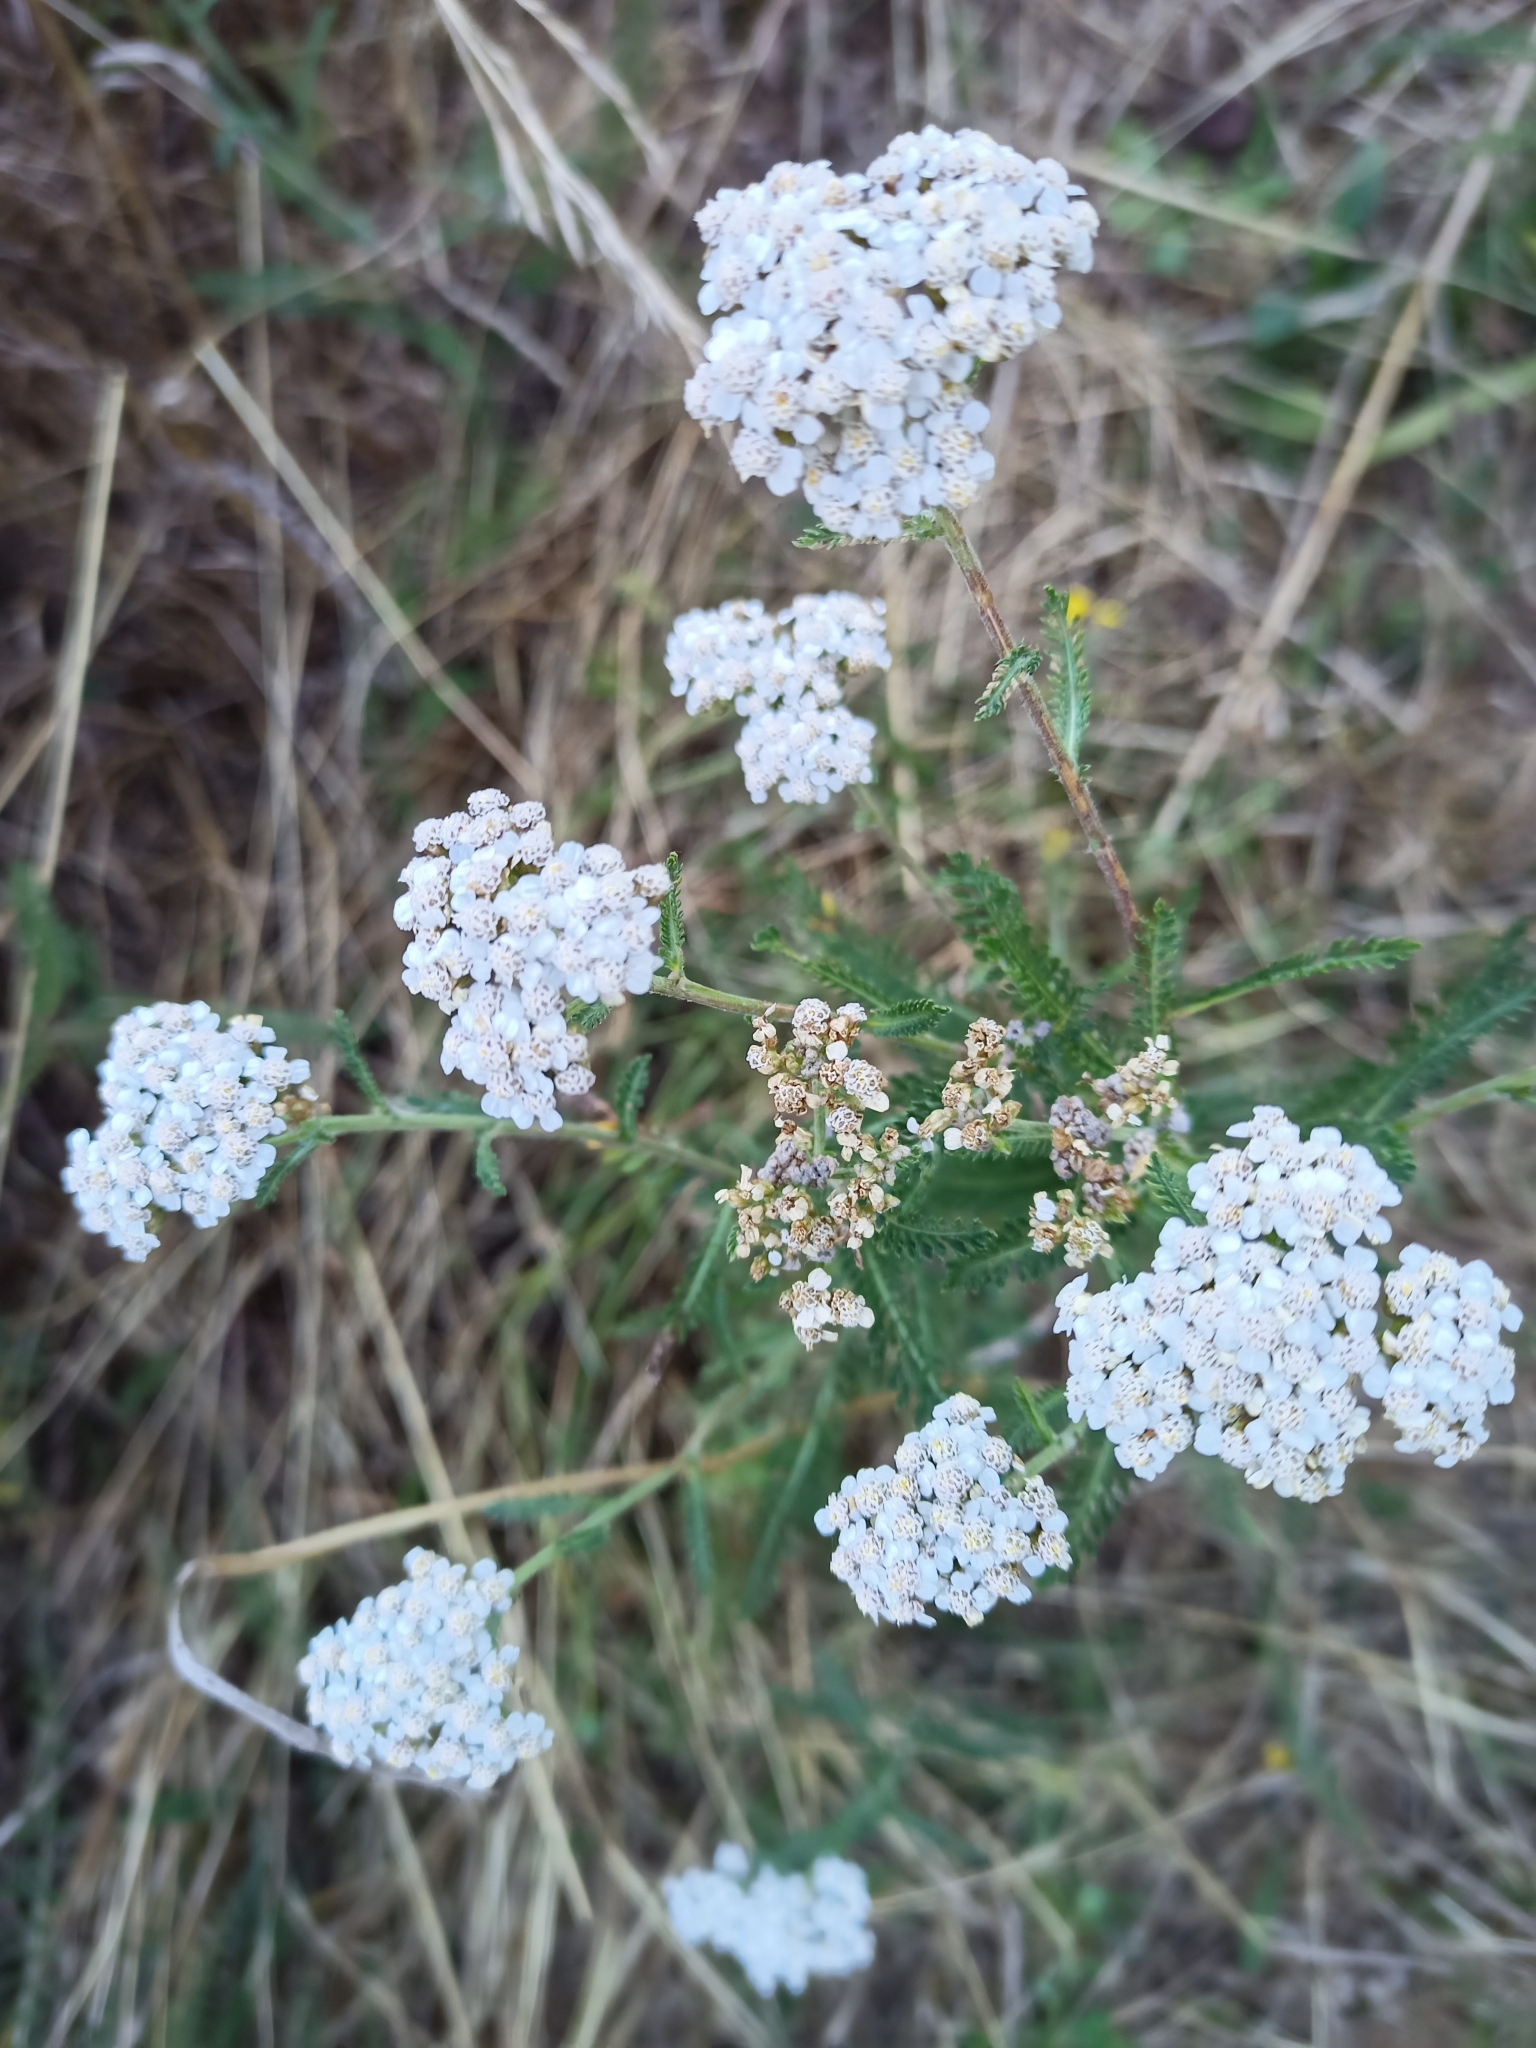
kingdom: Plantae
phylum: Tracheophyta
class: Magnoliopsida
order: Asterales
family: Asteraceae
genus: Achillea
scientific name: Achillea millefolium
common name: Yarrow
